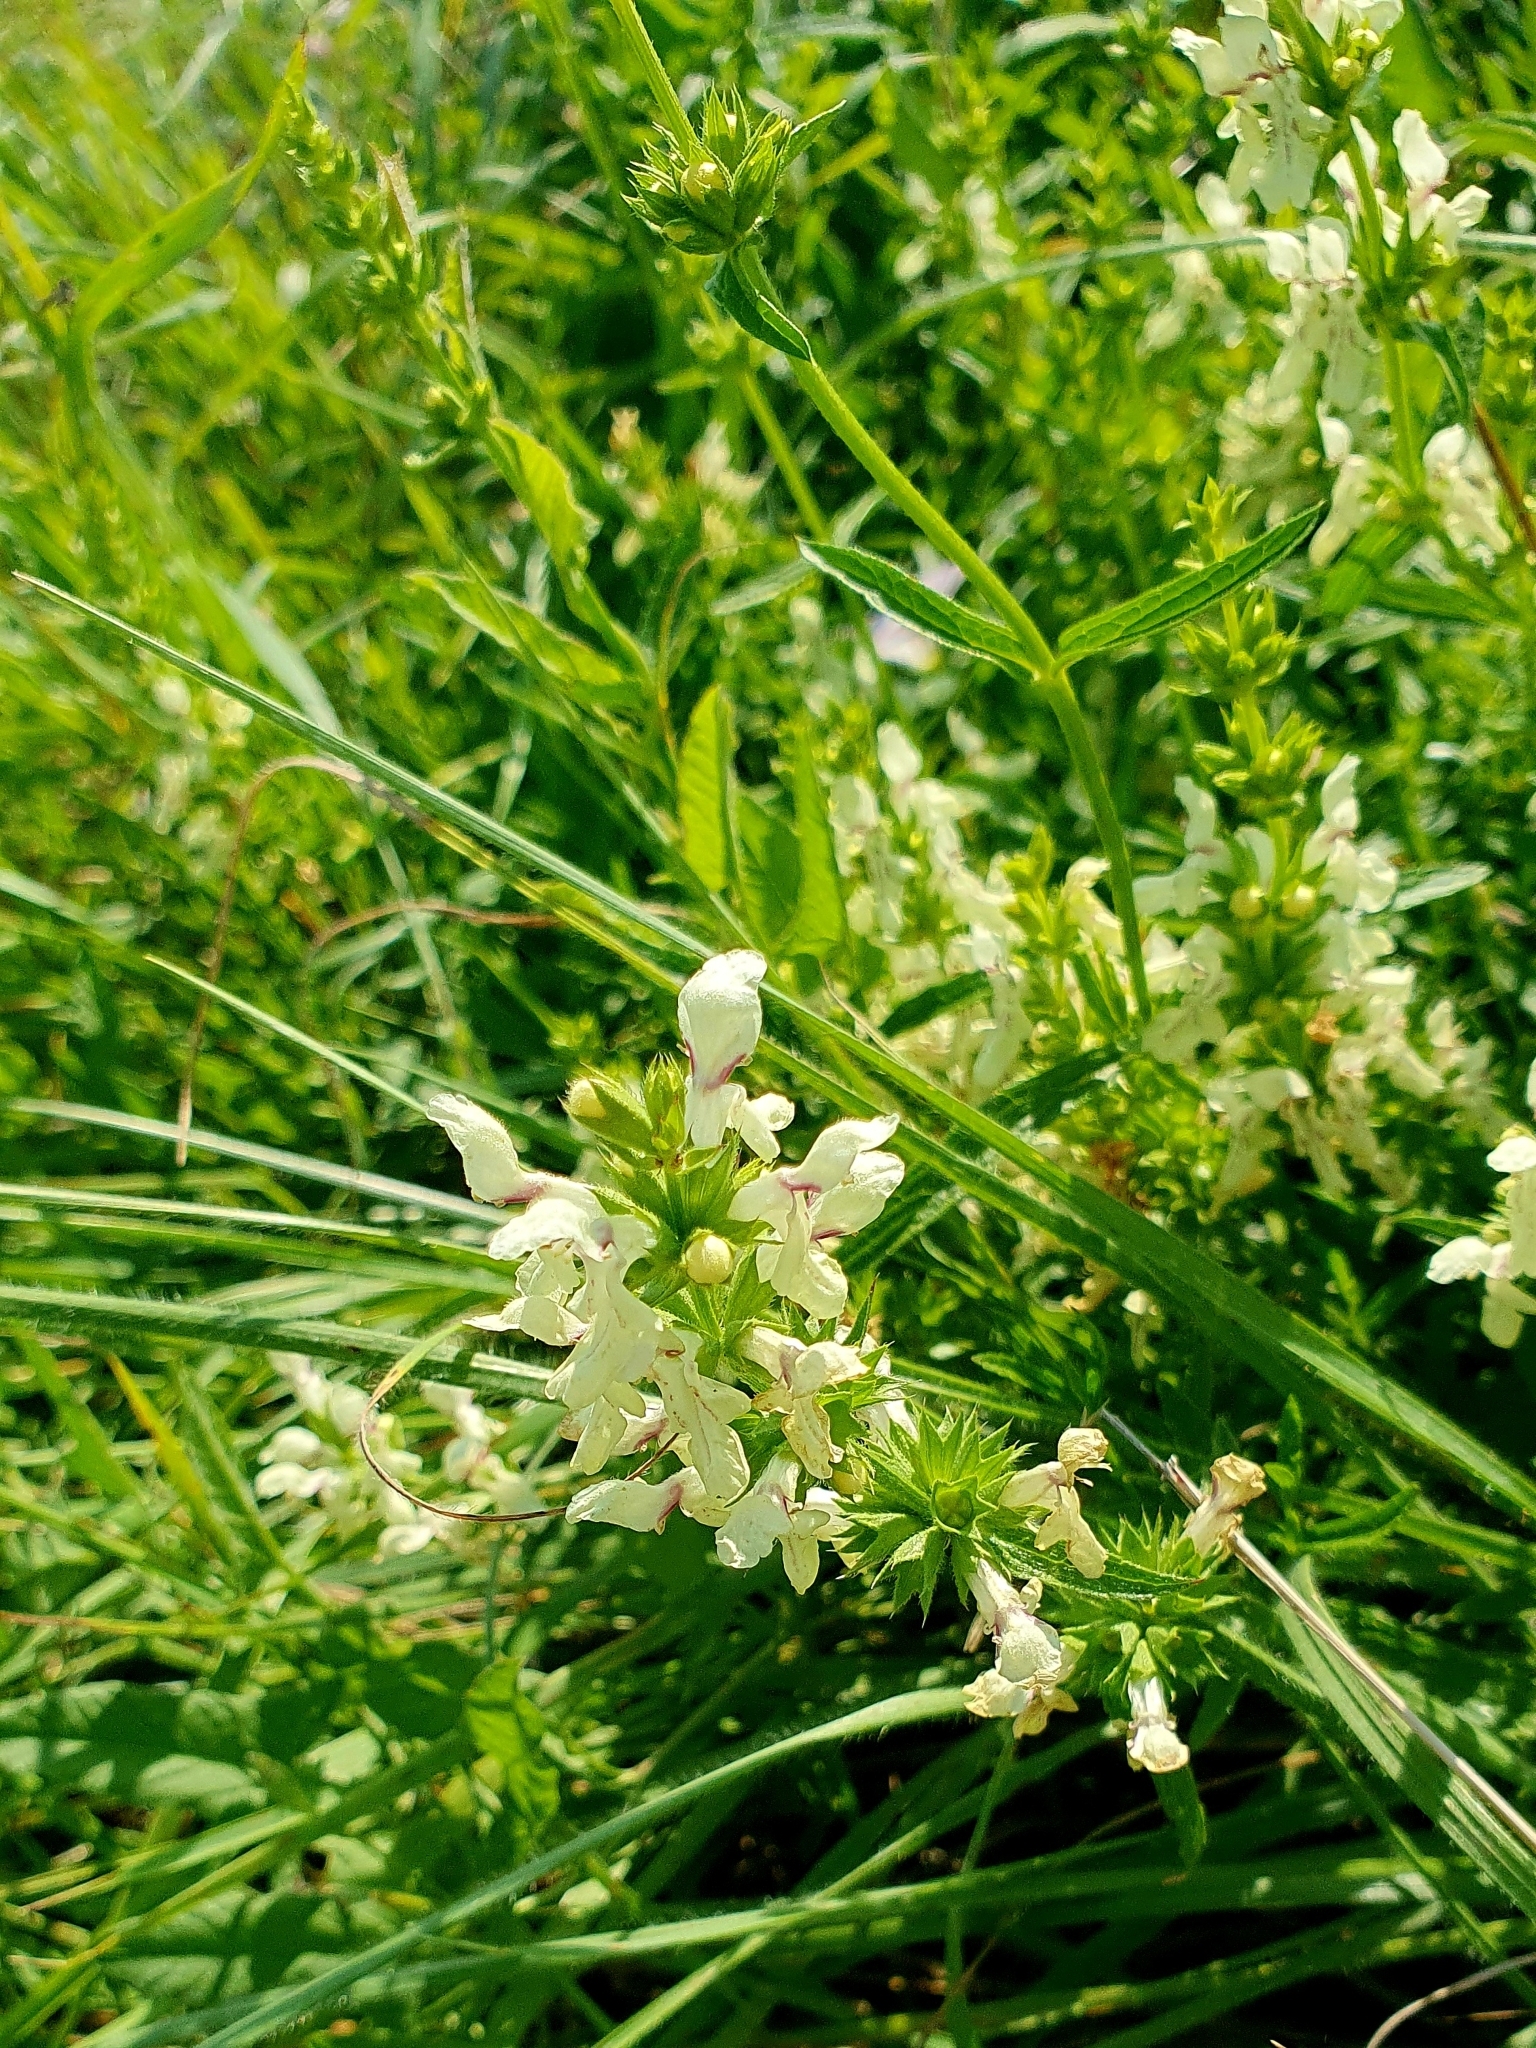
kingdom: Plantae
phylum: Tracheophyta
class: Magnoliopsida
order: Lamiales
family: Lamiaceae
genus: Stachys
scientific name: Stachys recta
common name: Perennial yellow-woundwort
